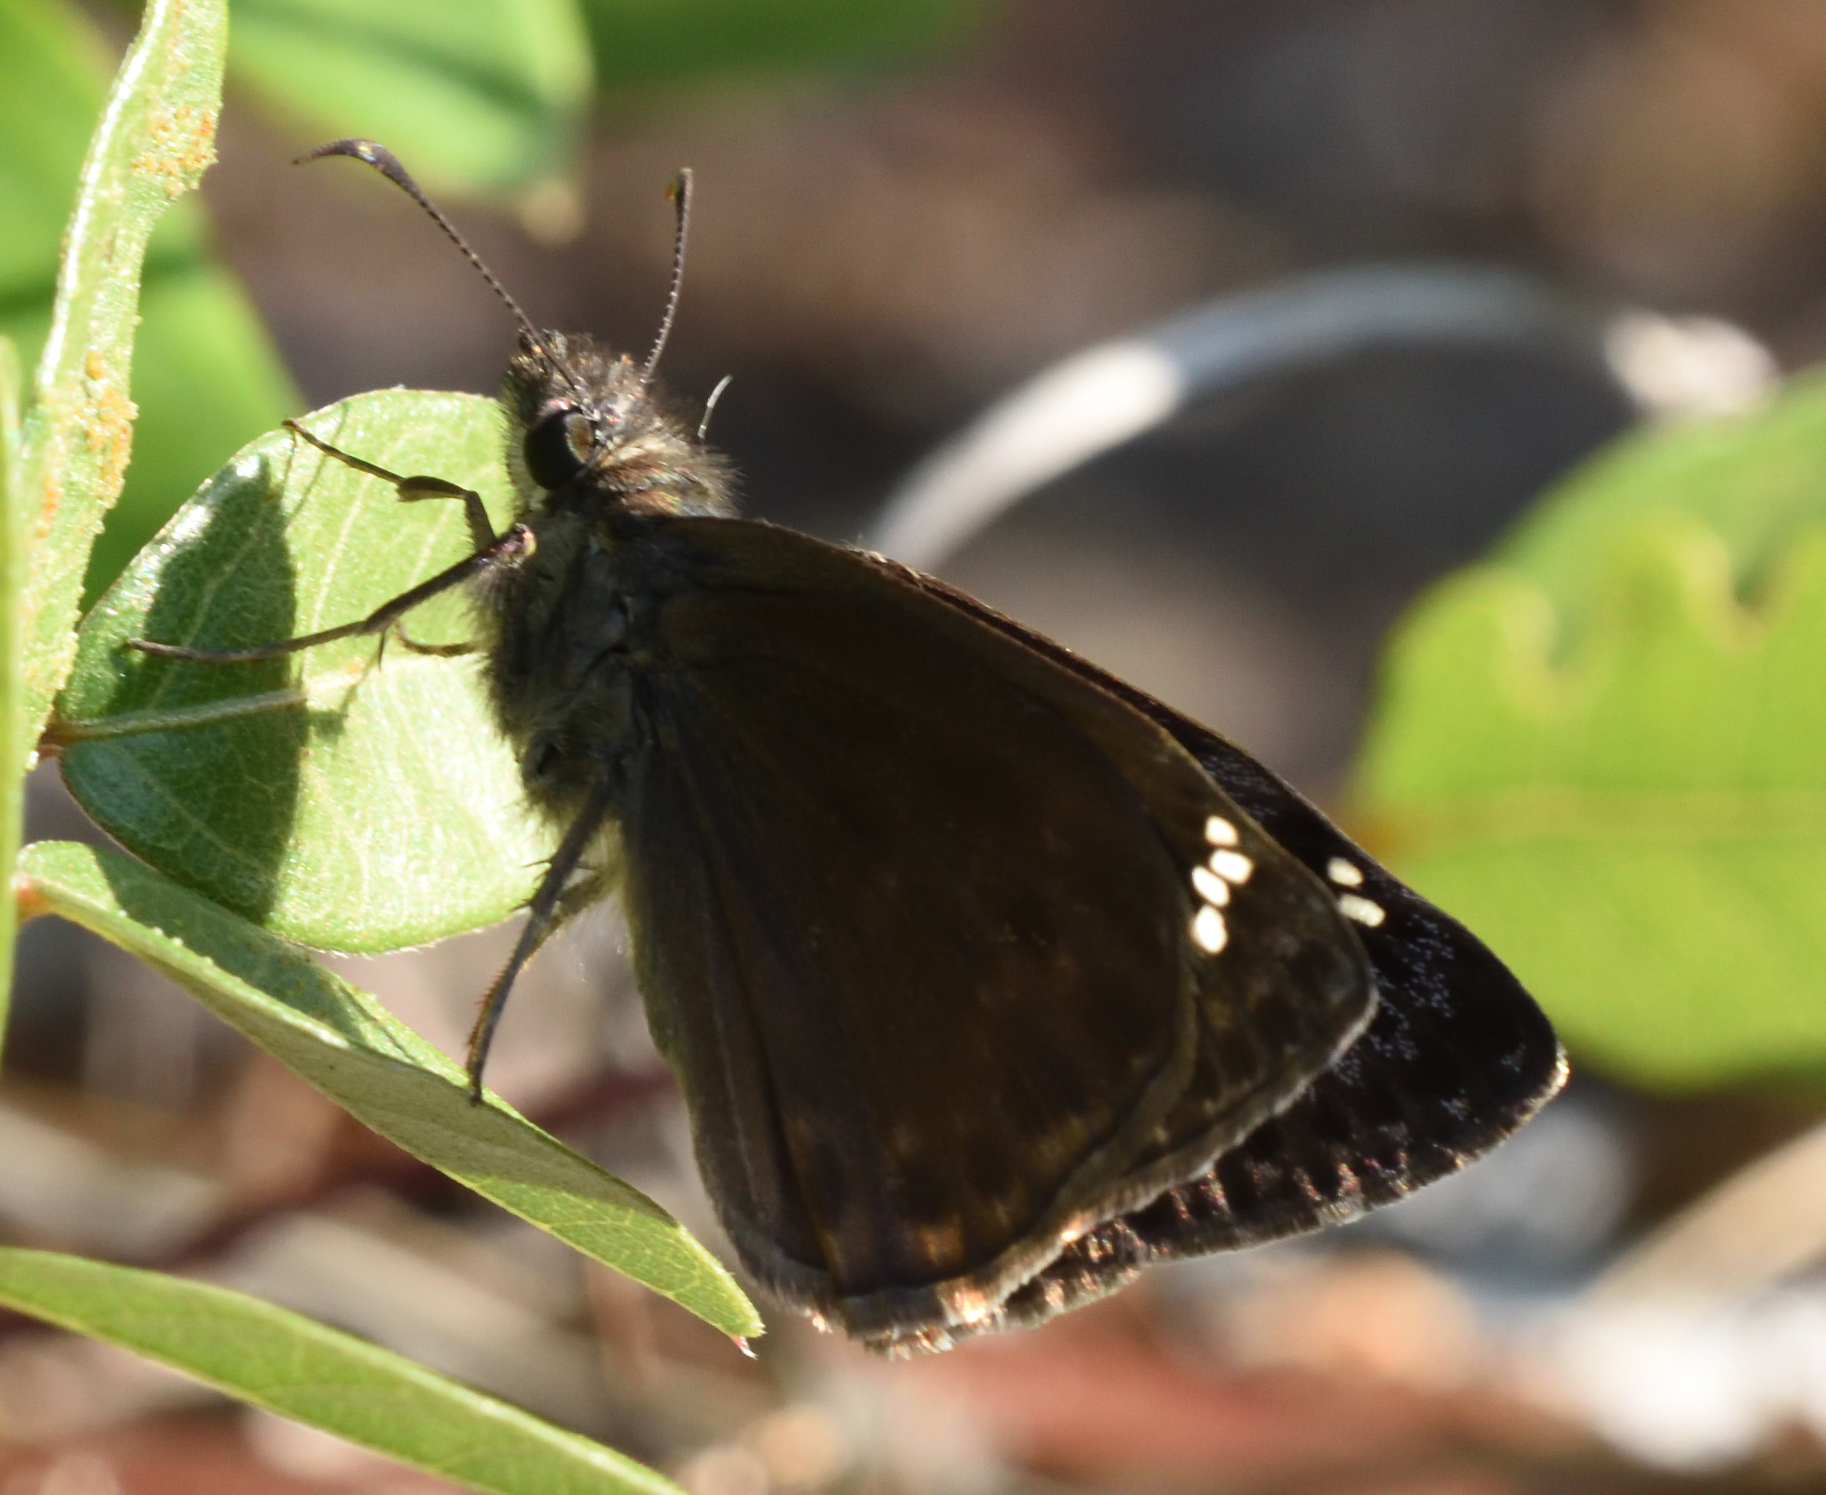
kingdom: Animalia
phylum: Arthropoda
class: Insecta
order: Lepidoptera
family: Hesperiidae
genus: Erynnis
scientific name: Erynnis horatius
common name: Horace's duskywing
